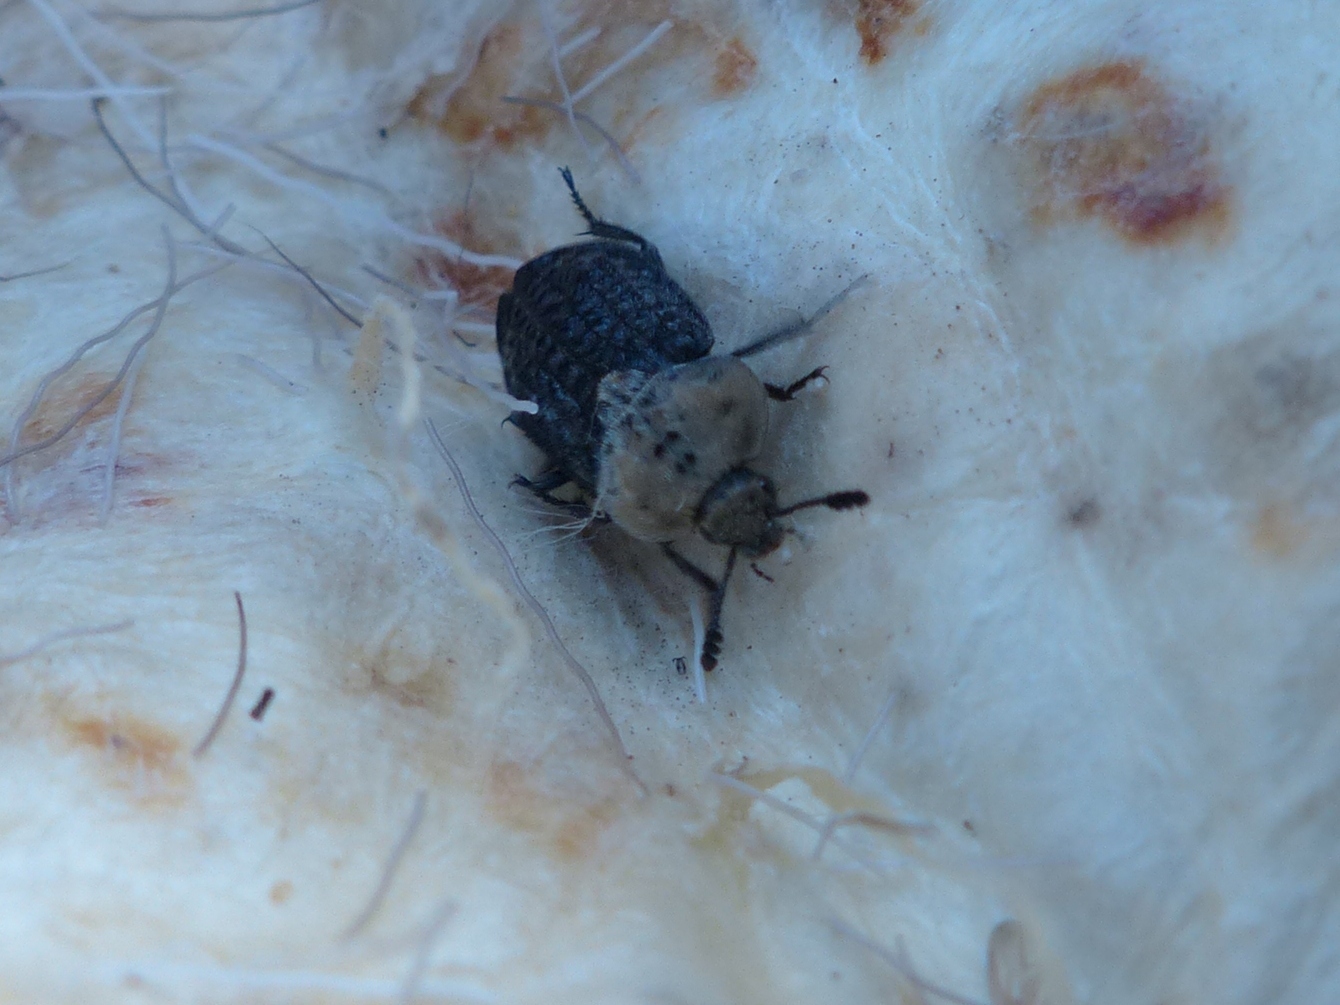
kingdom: Animalia
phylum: Arthropoda
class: Insecta
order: Coleoptera
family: Staphylinidae
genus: Thanatophilus
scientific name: Thanatophilus lapponicus
